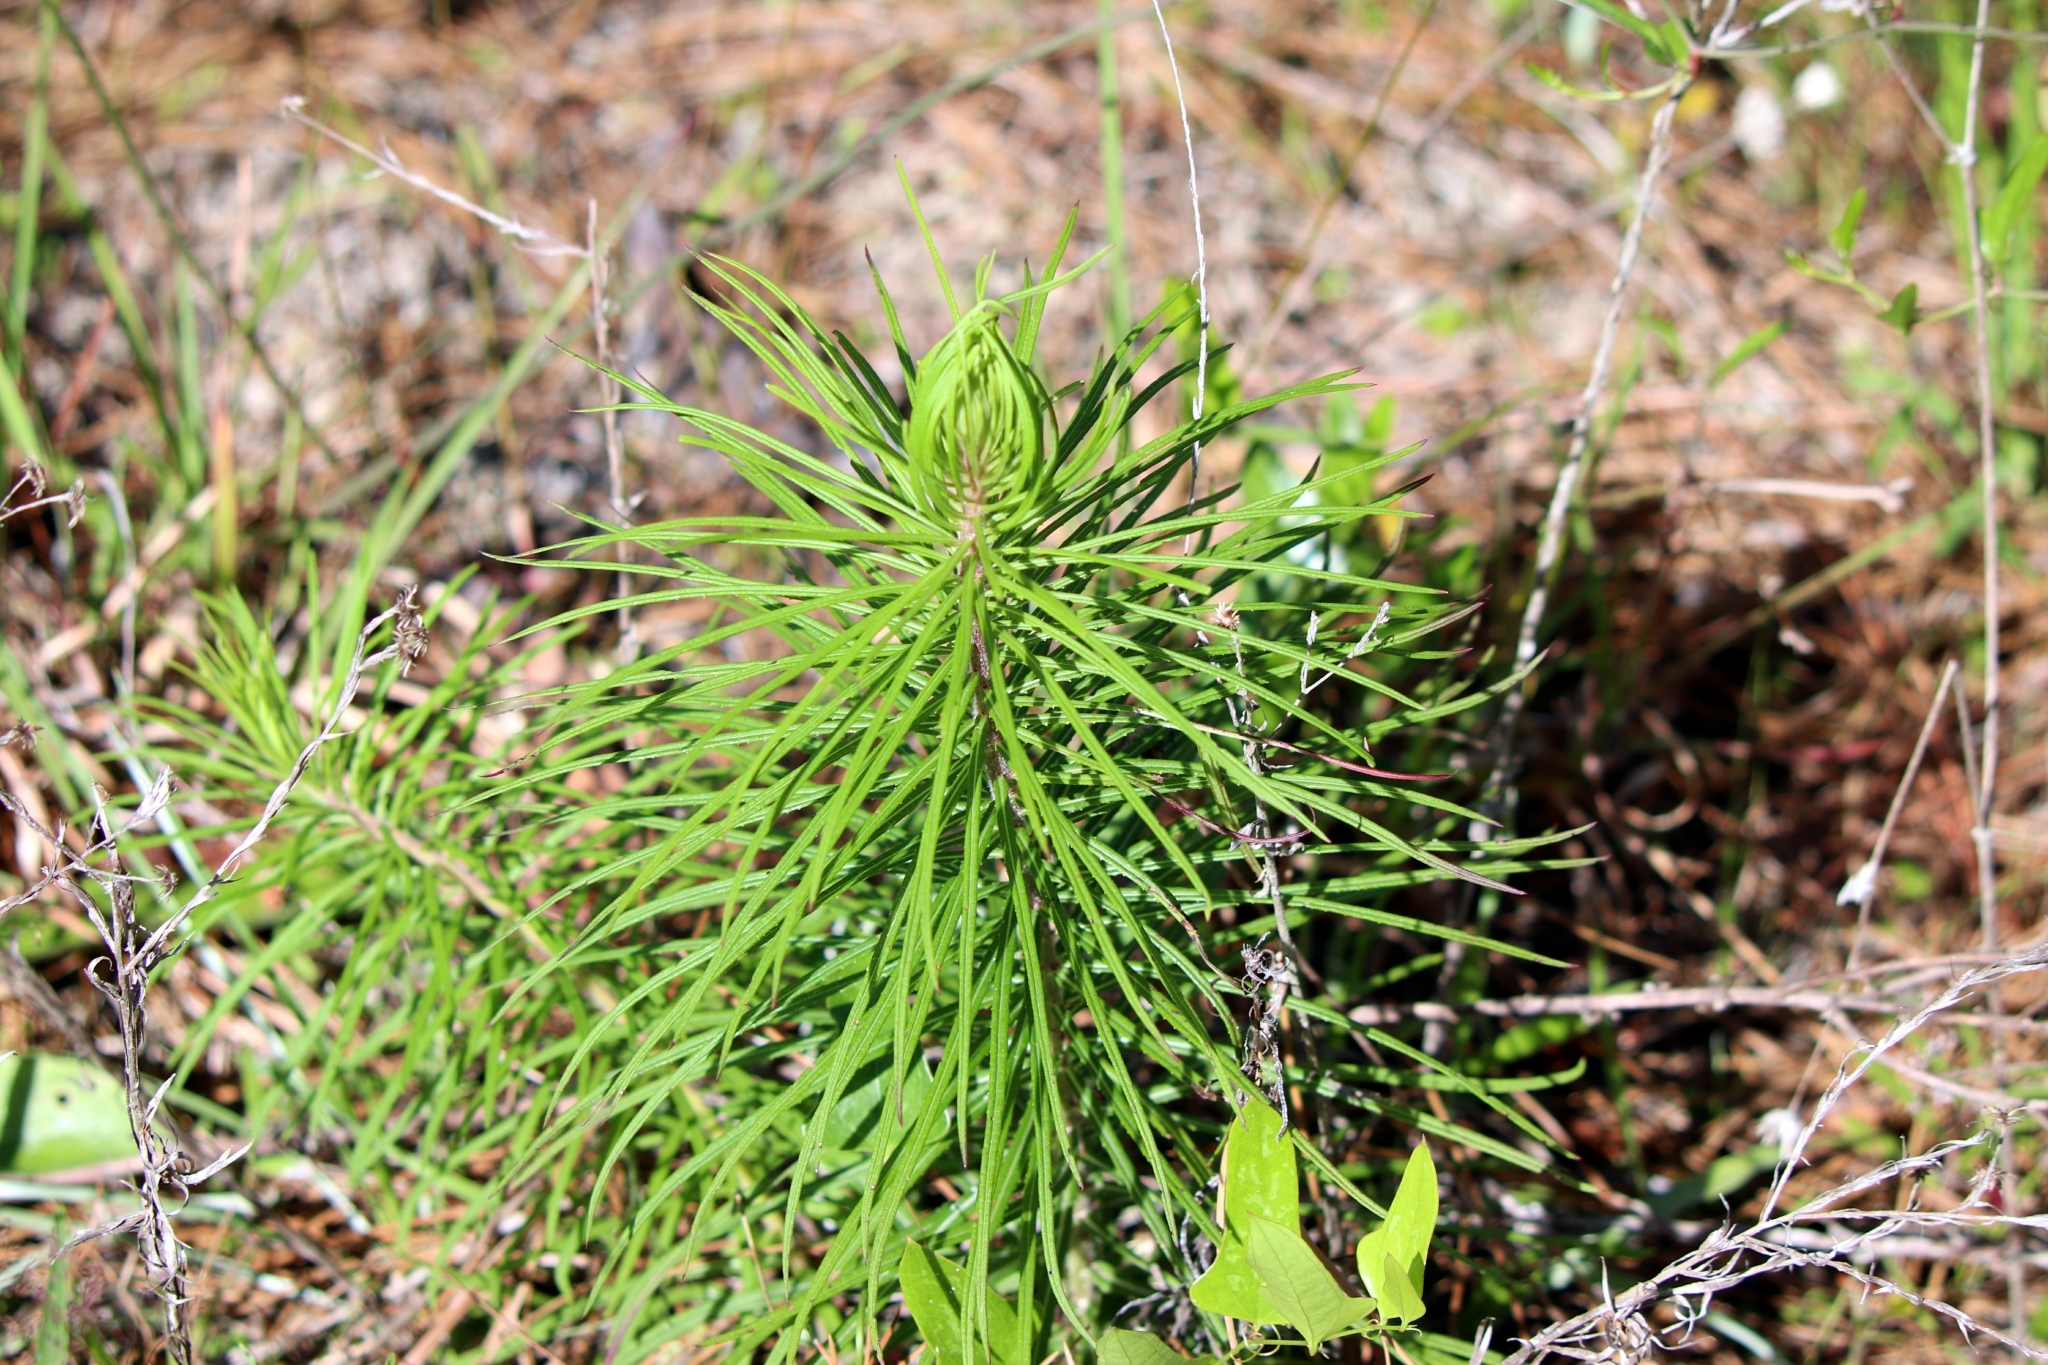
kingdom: Plantae
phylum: Tracheophyta
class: Magnoliopsida
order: Asterales
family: Asteraceae
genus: Vernonia
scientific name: Vernonia angustifolia
